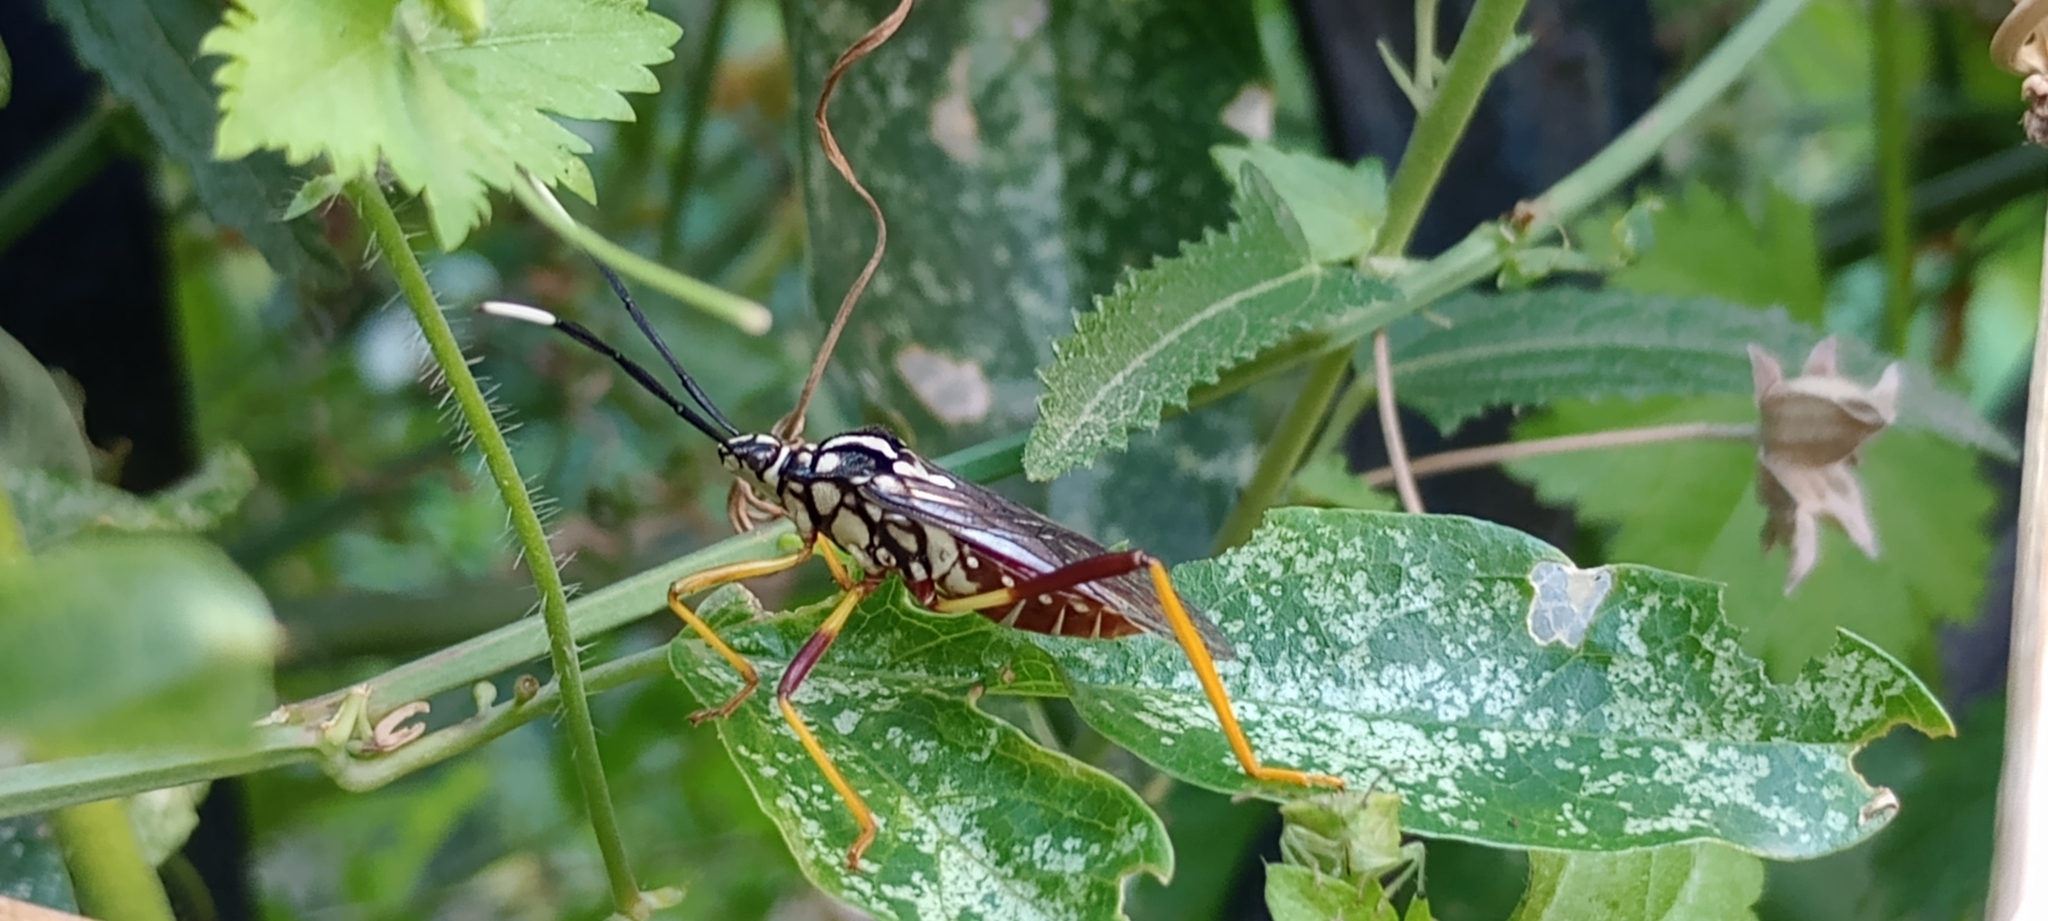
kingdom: Animalia
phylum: Arthropoda
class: Insecta
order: Hemiptera
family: Coreidae
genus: Holhymenia
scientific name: Holhymenia histrio
